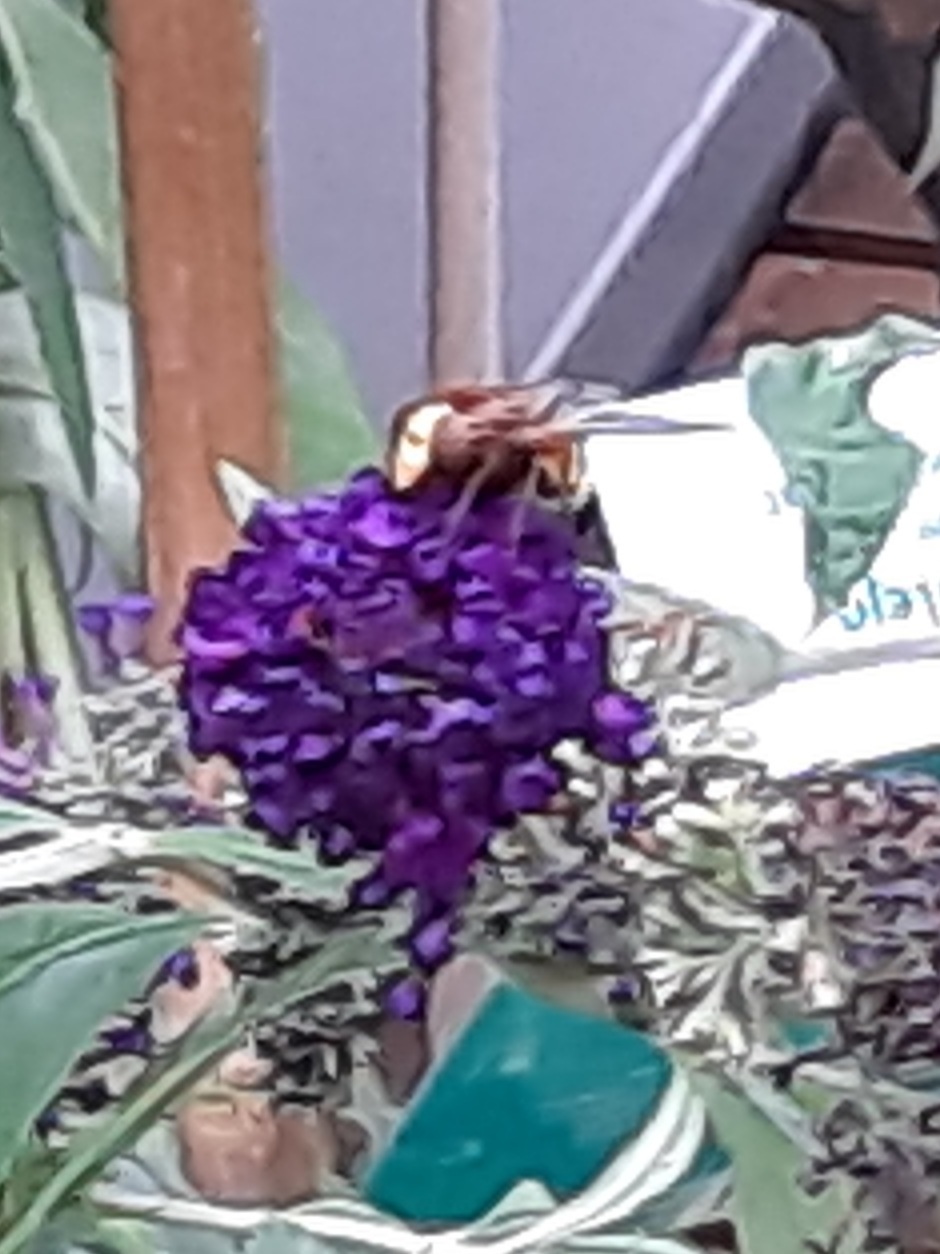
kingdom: Animalia
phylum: Arthropoda
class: Insecta
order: Diptera
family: Syrphidae
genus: Volucella
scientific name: Volucella zonaria
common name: Hornet hoverfly
